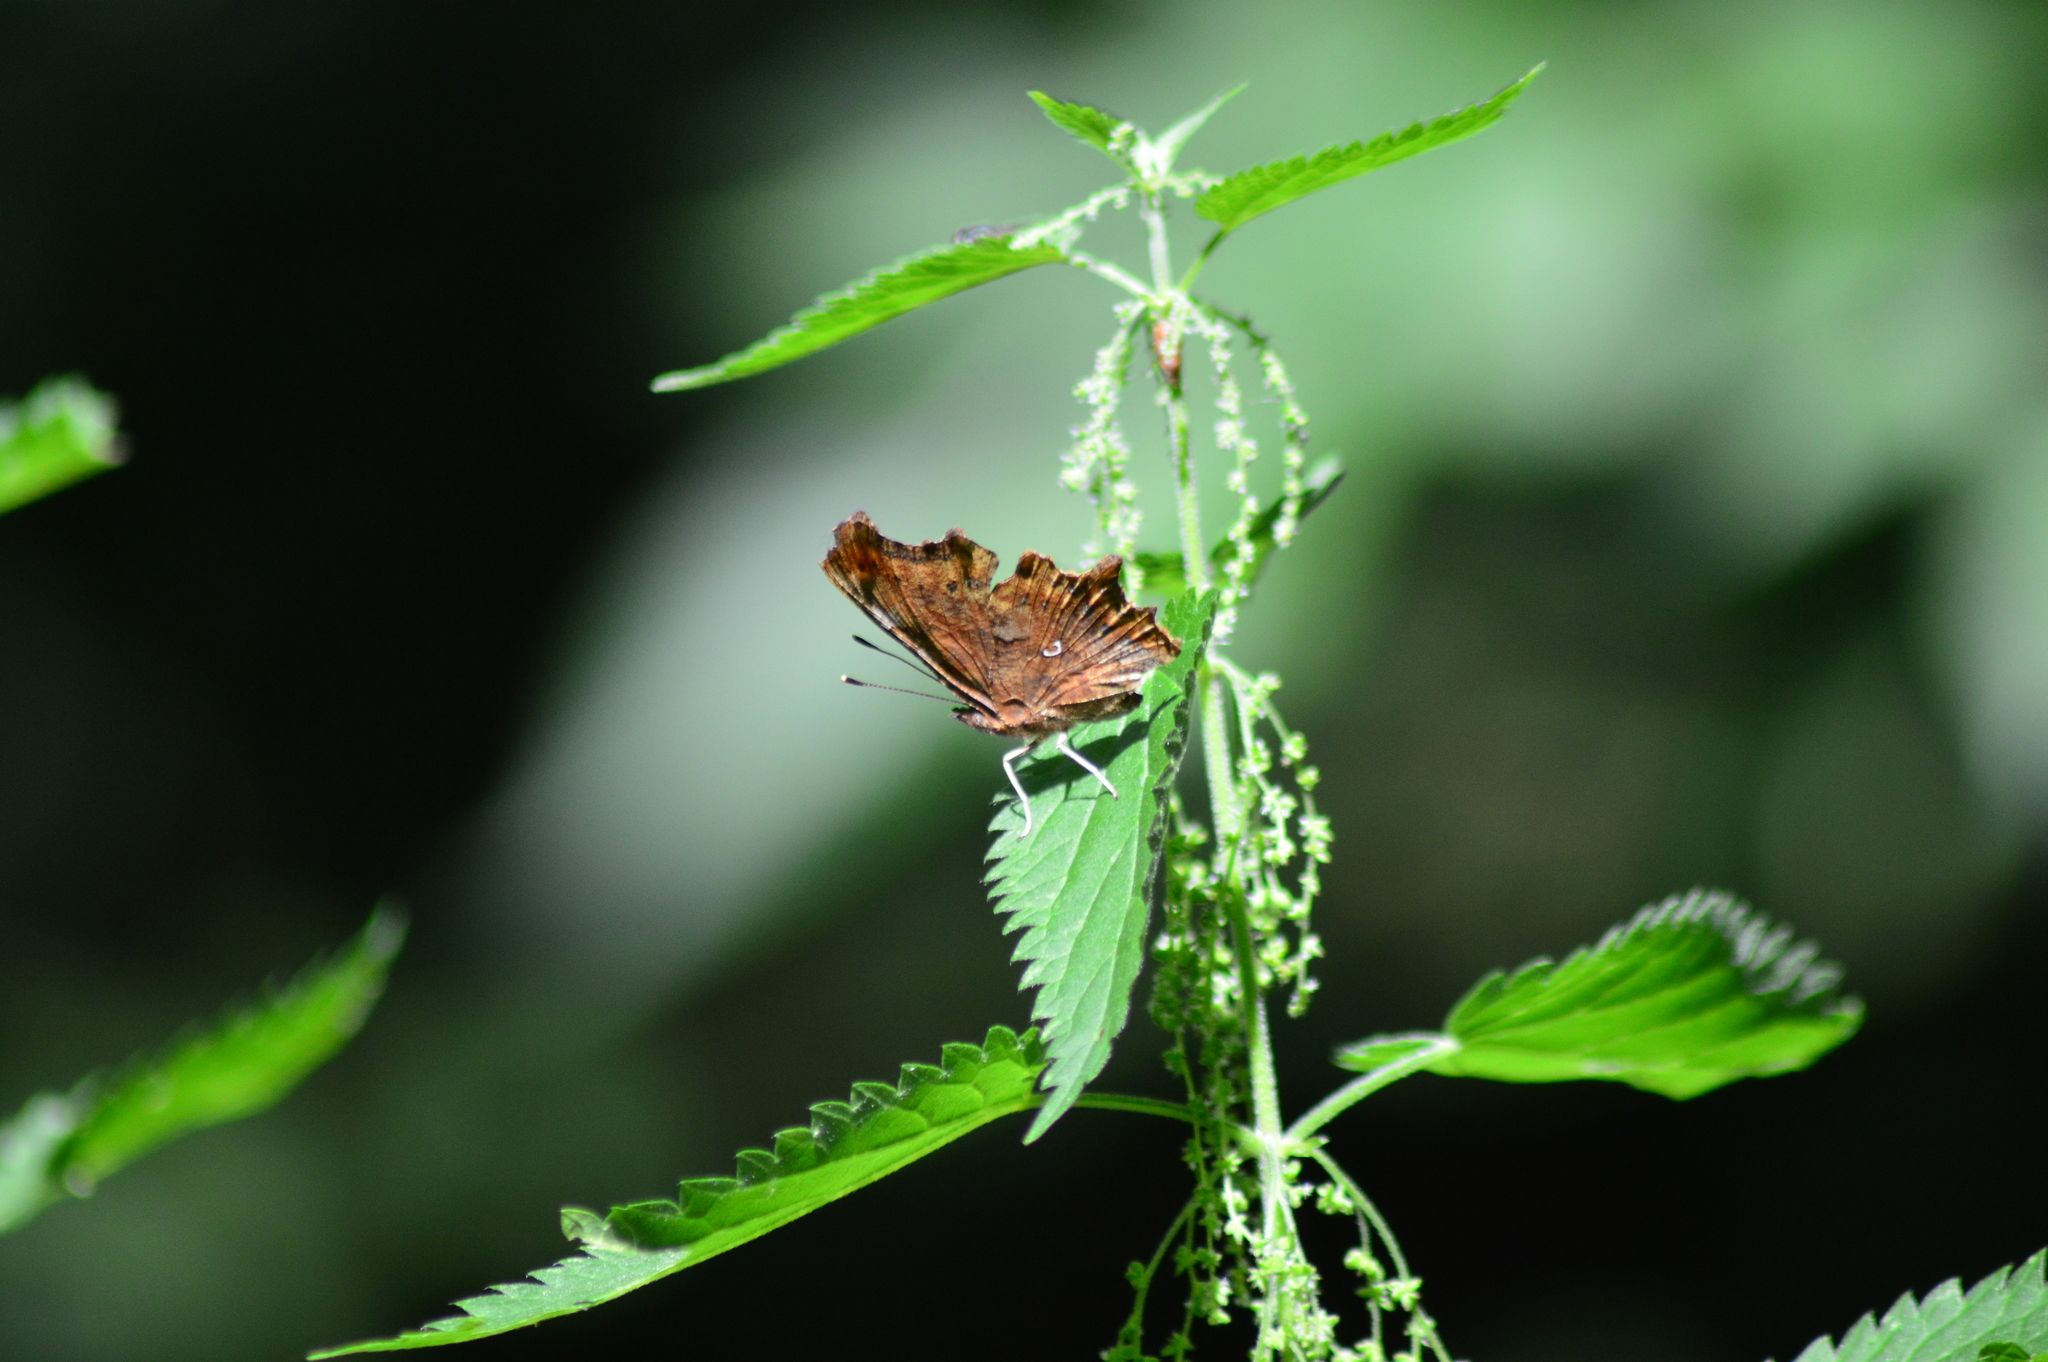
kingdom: Animalia
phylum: Arthropoda
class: Insecta
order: Lepidoptera
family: Nymphalidae
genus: Polygonia
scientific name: Polygonia c-album
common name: Comma
